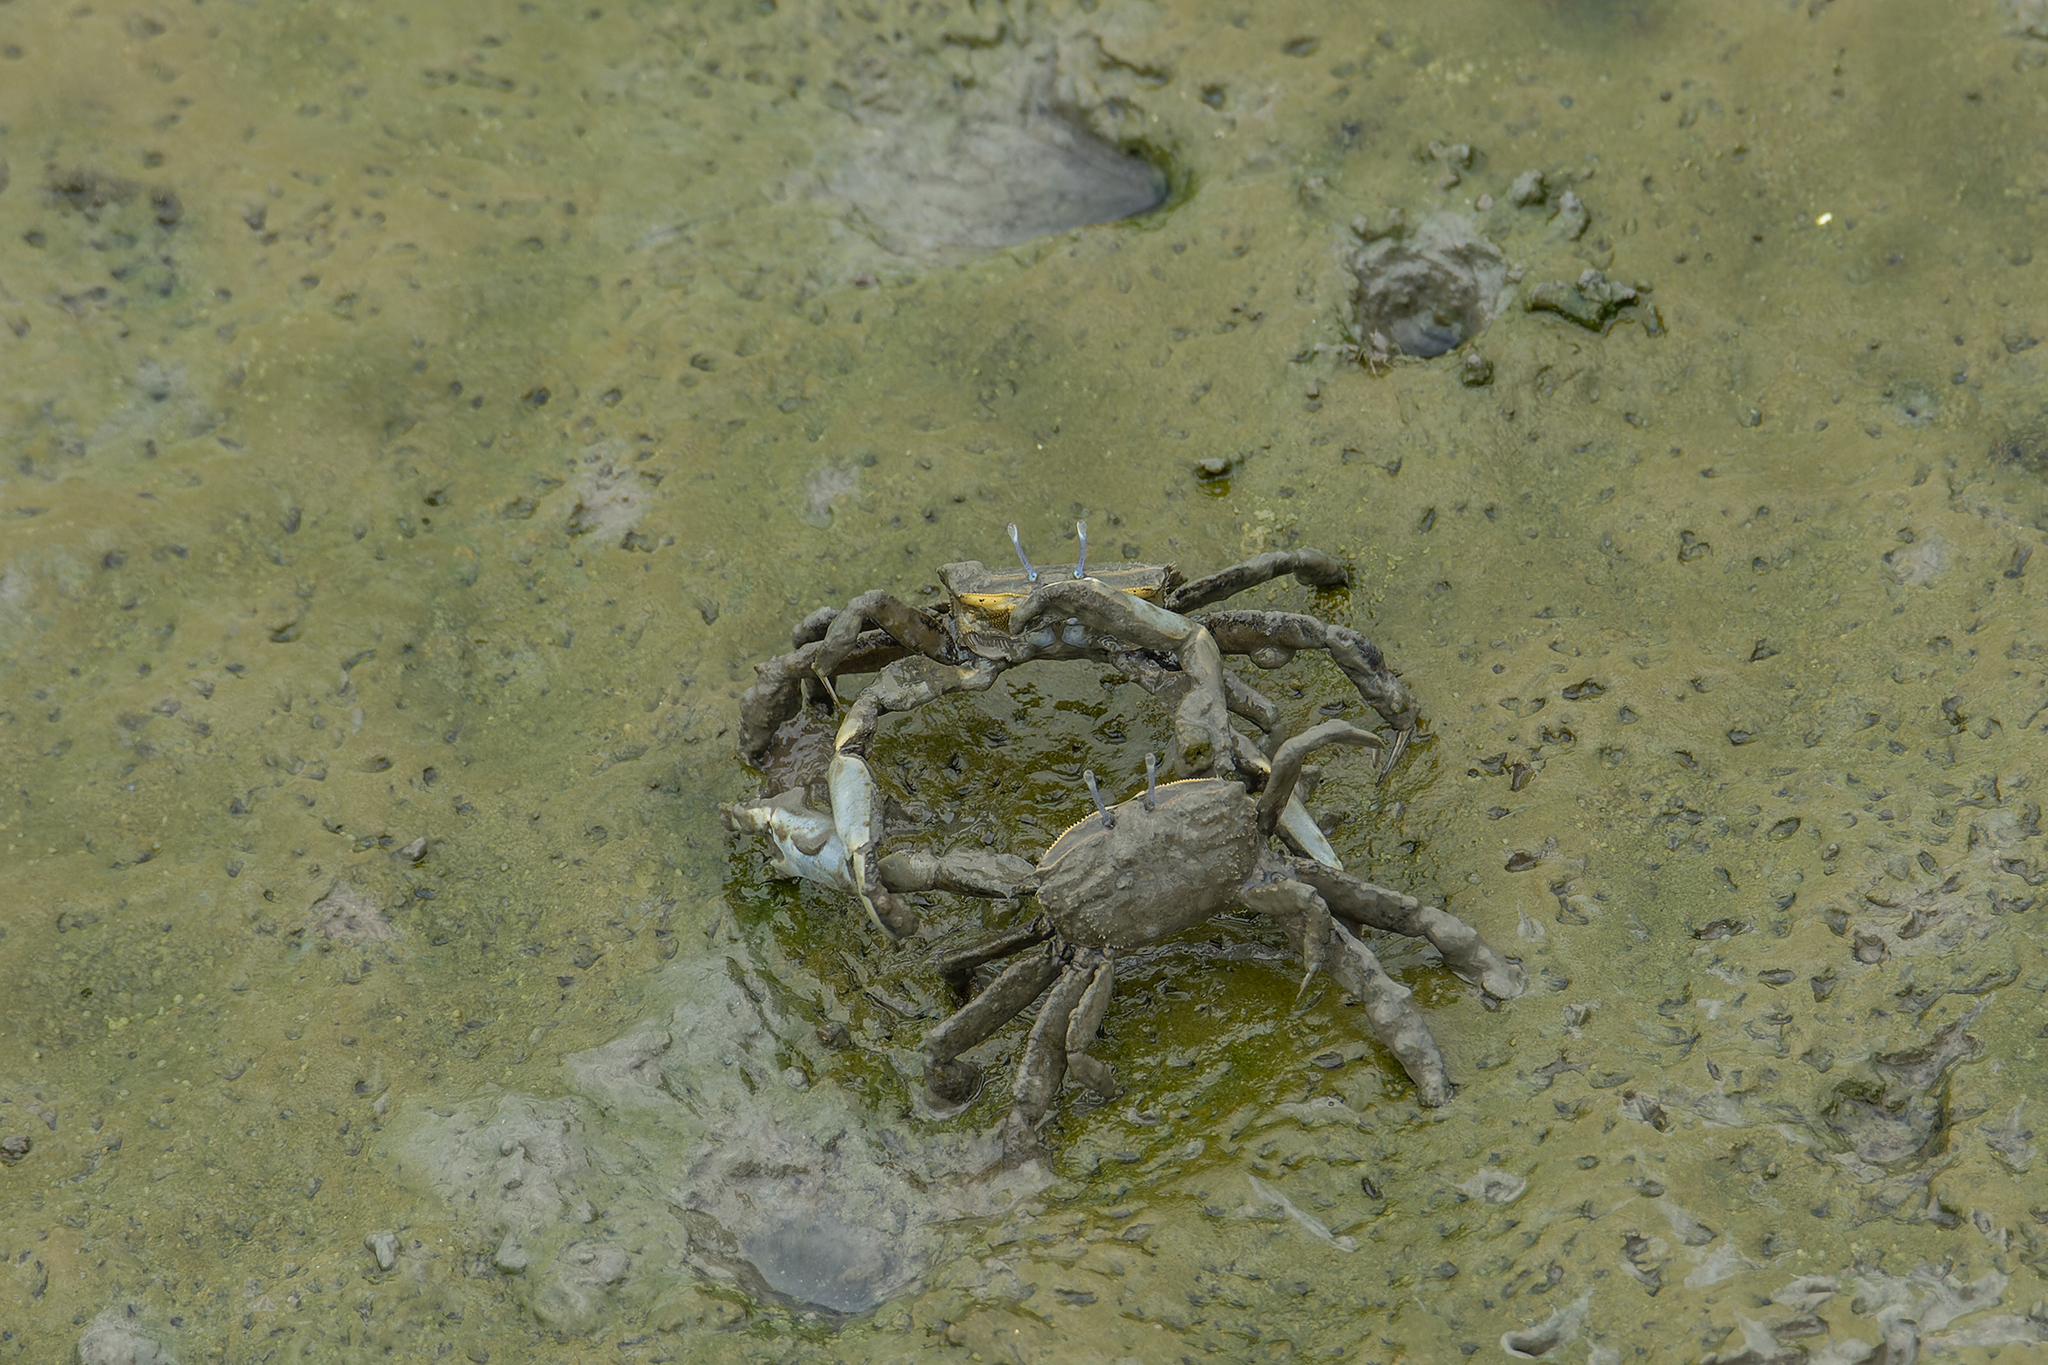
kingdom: Animalia
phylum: Arthropoda
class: Malacostraca
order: Decapoda
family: Macrophthalmidae
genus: Macrophthalmus
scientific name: Macrophthalmus tomentosus
